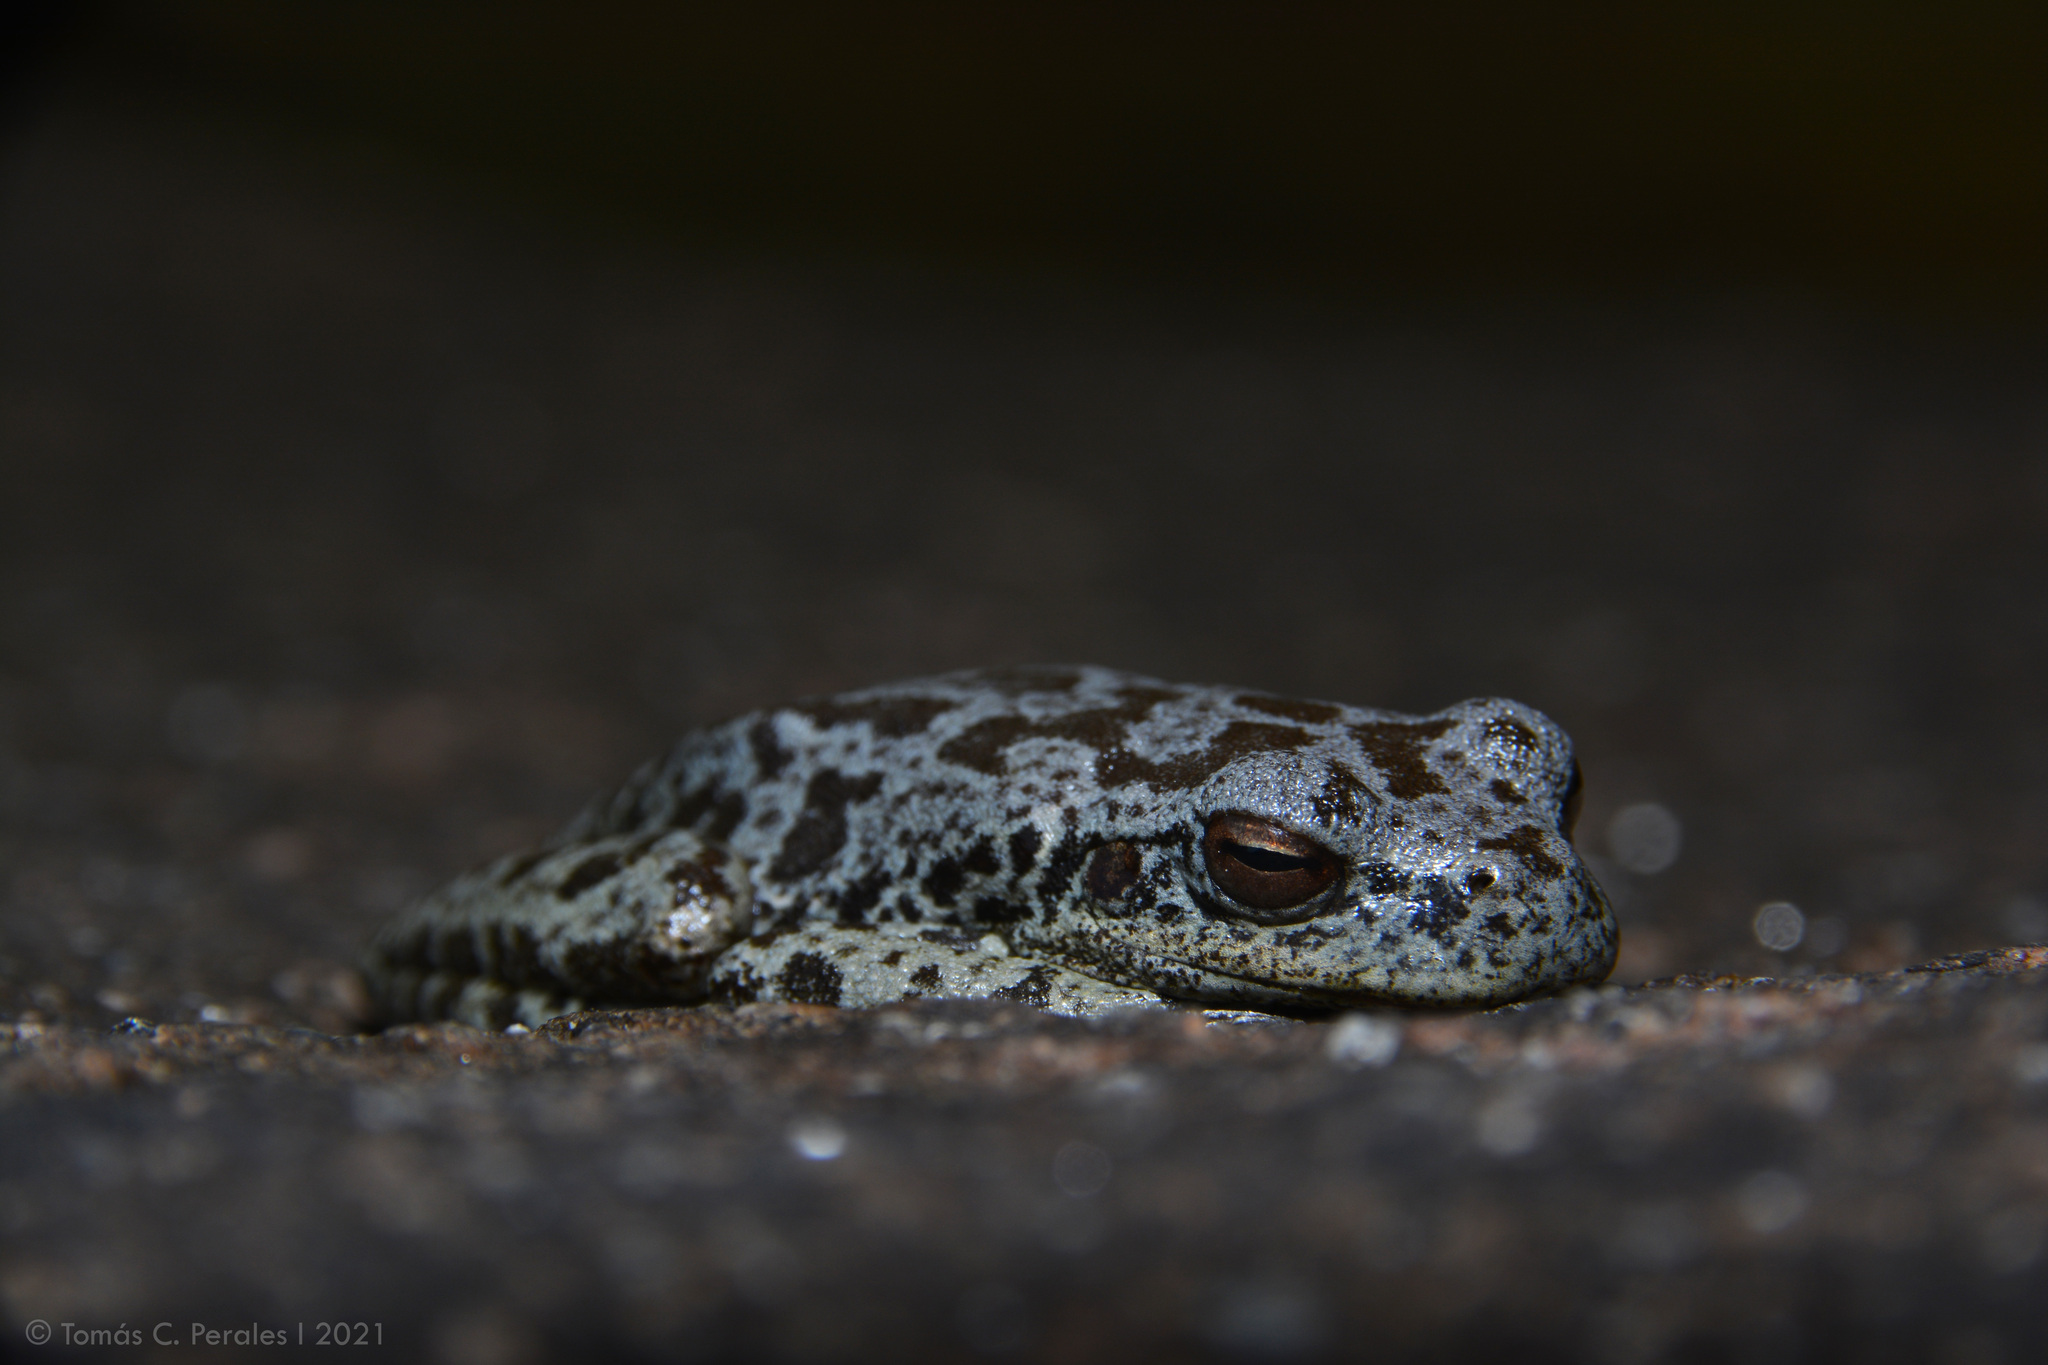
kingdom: Animalia
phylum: Chordata
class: Amphibia
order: Anura
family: Hylidae
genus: Boana
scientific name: Boana cordobae
